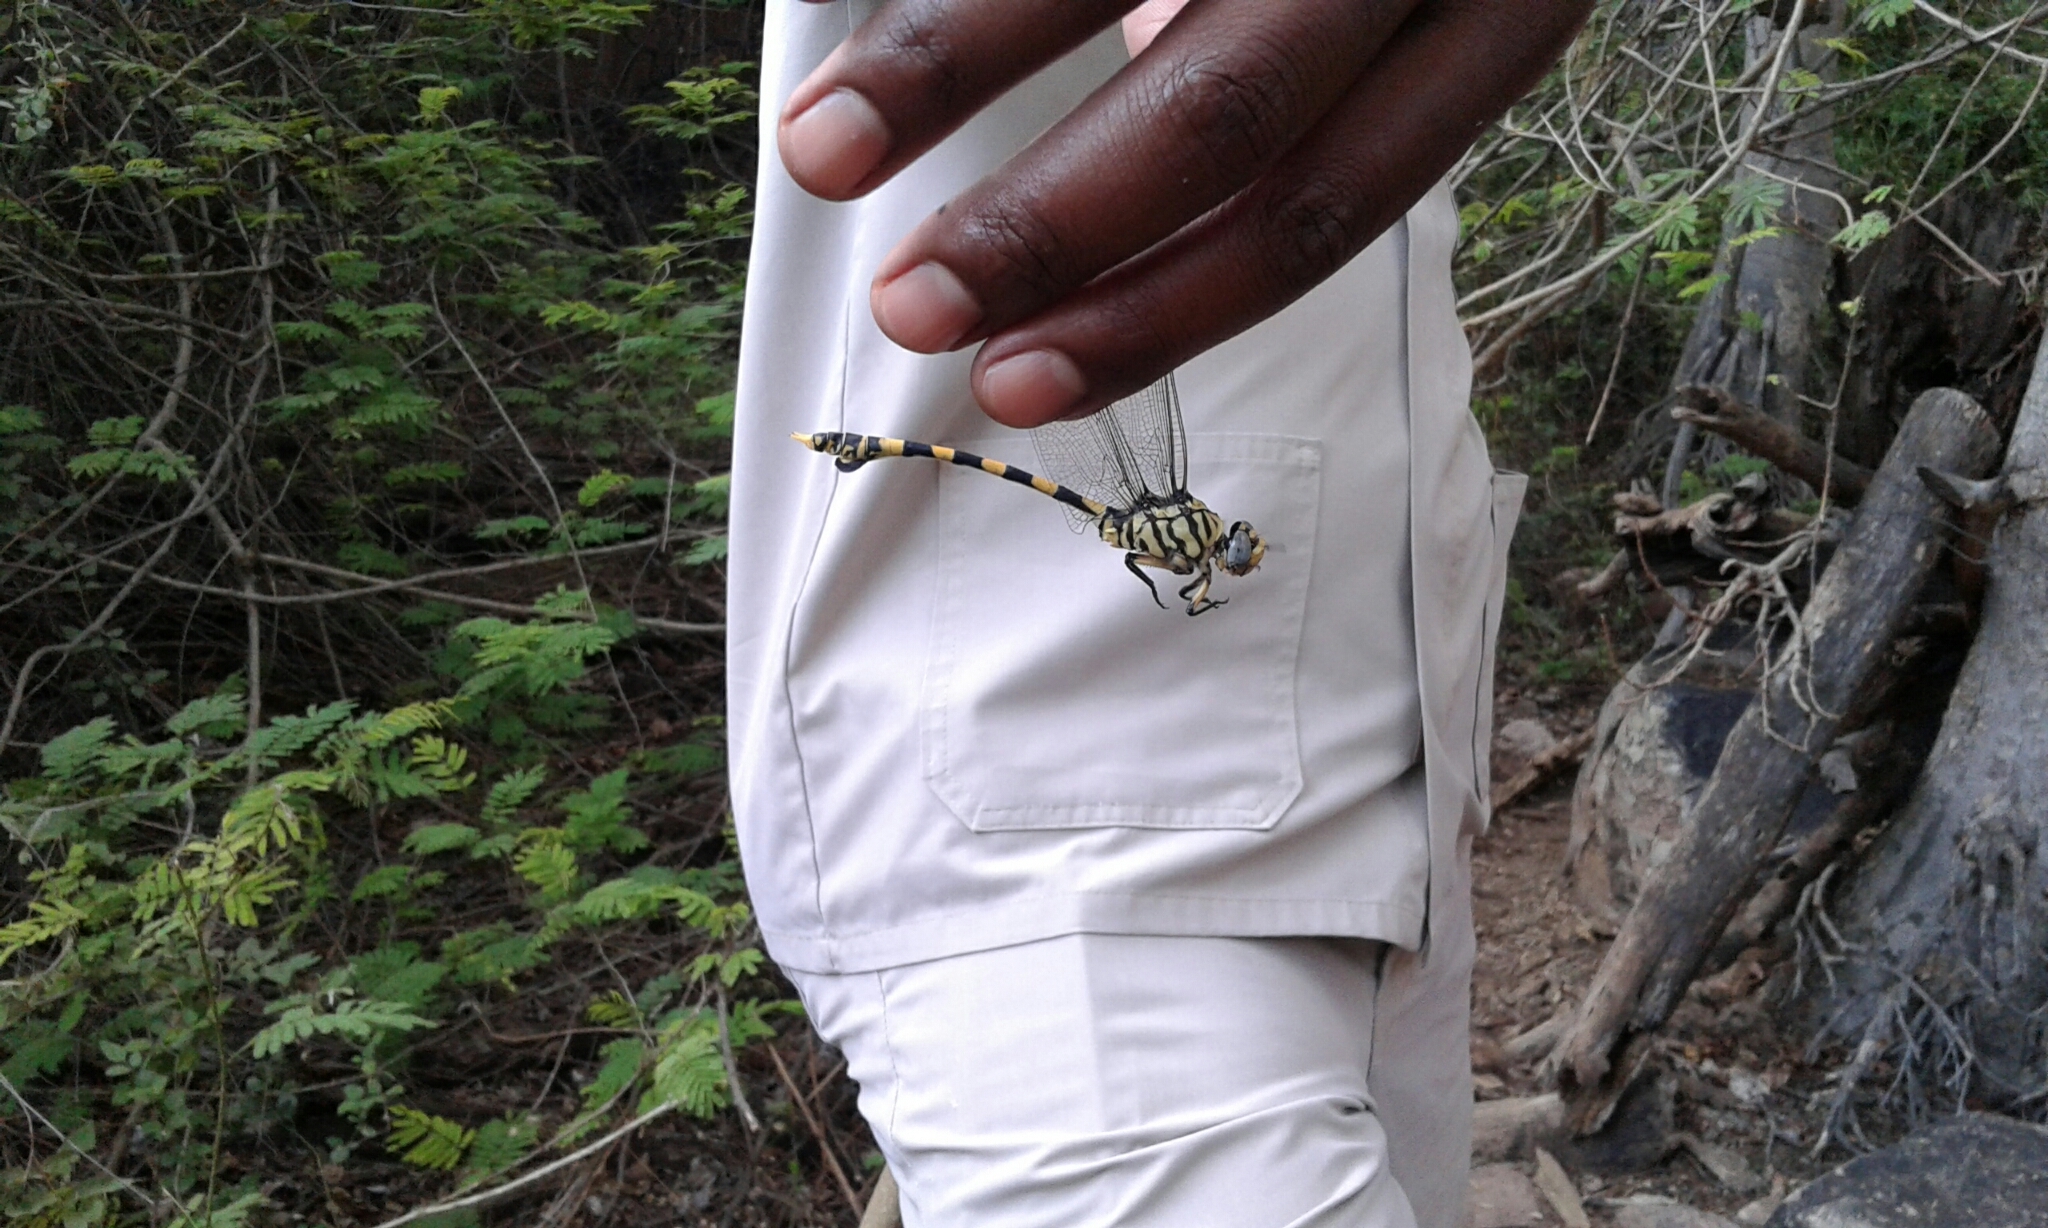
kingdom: Animalia
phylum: Arthropoda
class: Insecta
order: Odonata
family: Gomphidae
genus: Ictinogomphus
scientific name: Ictinogomphus ferox
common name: Common tiger
